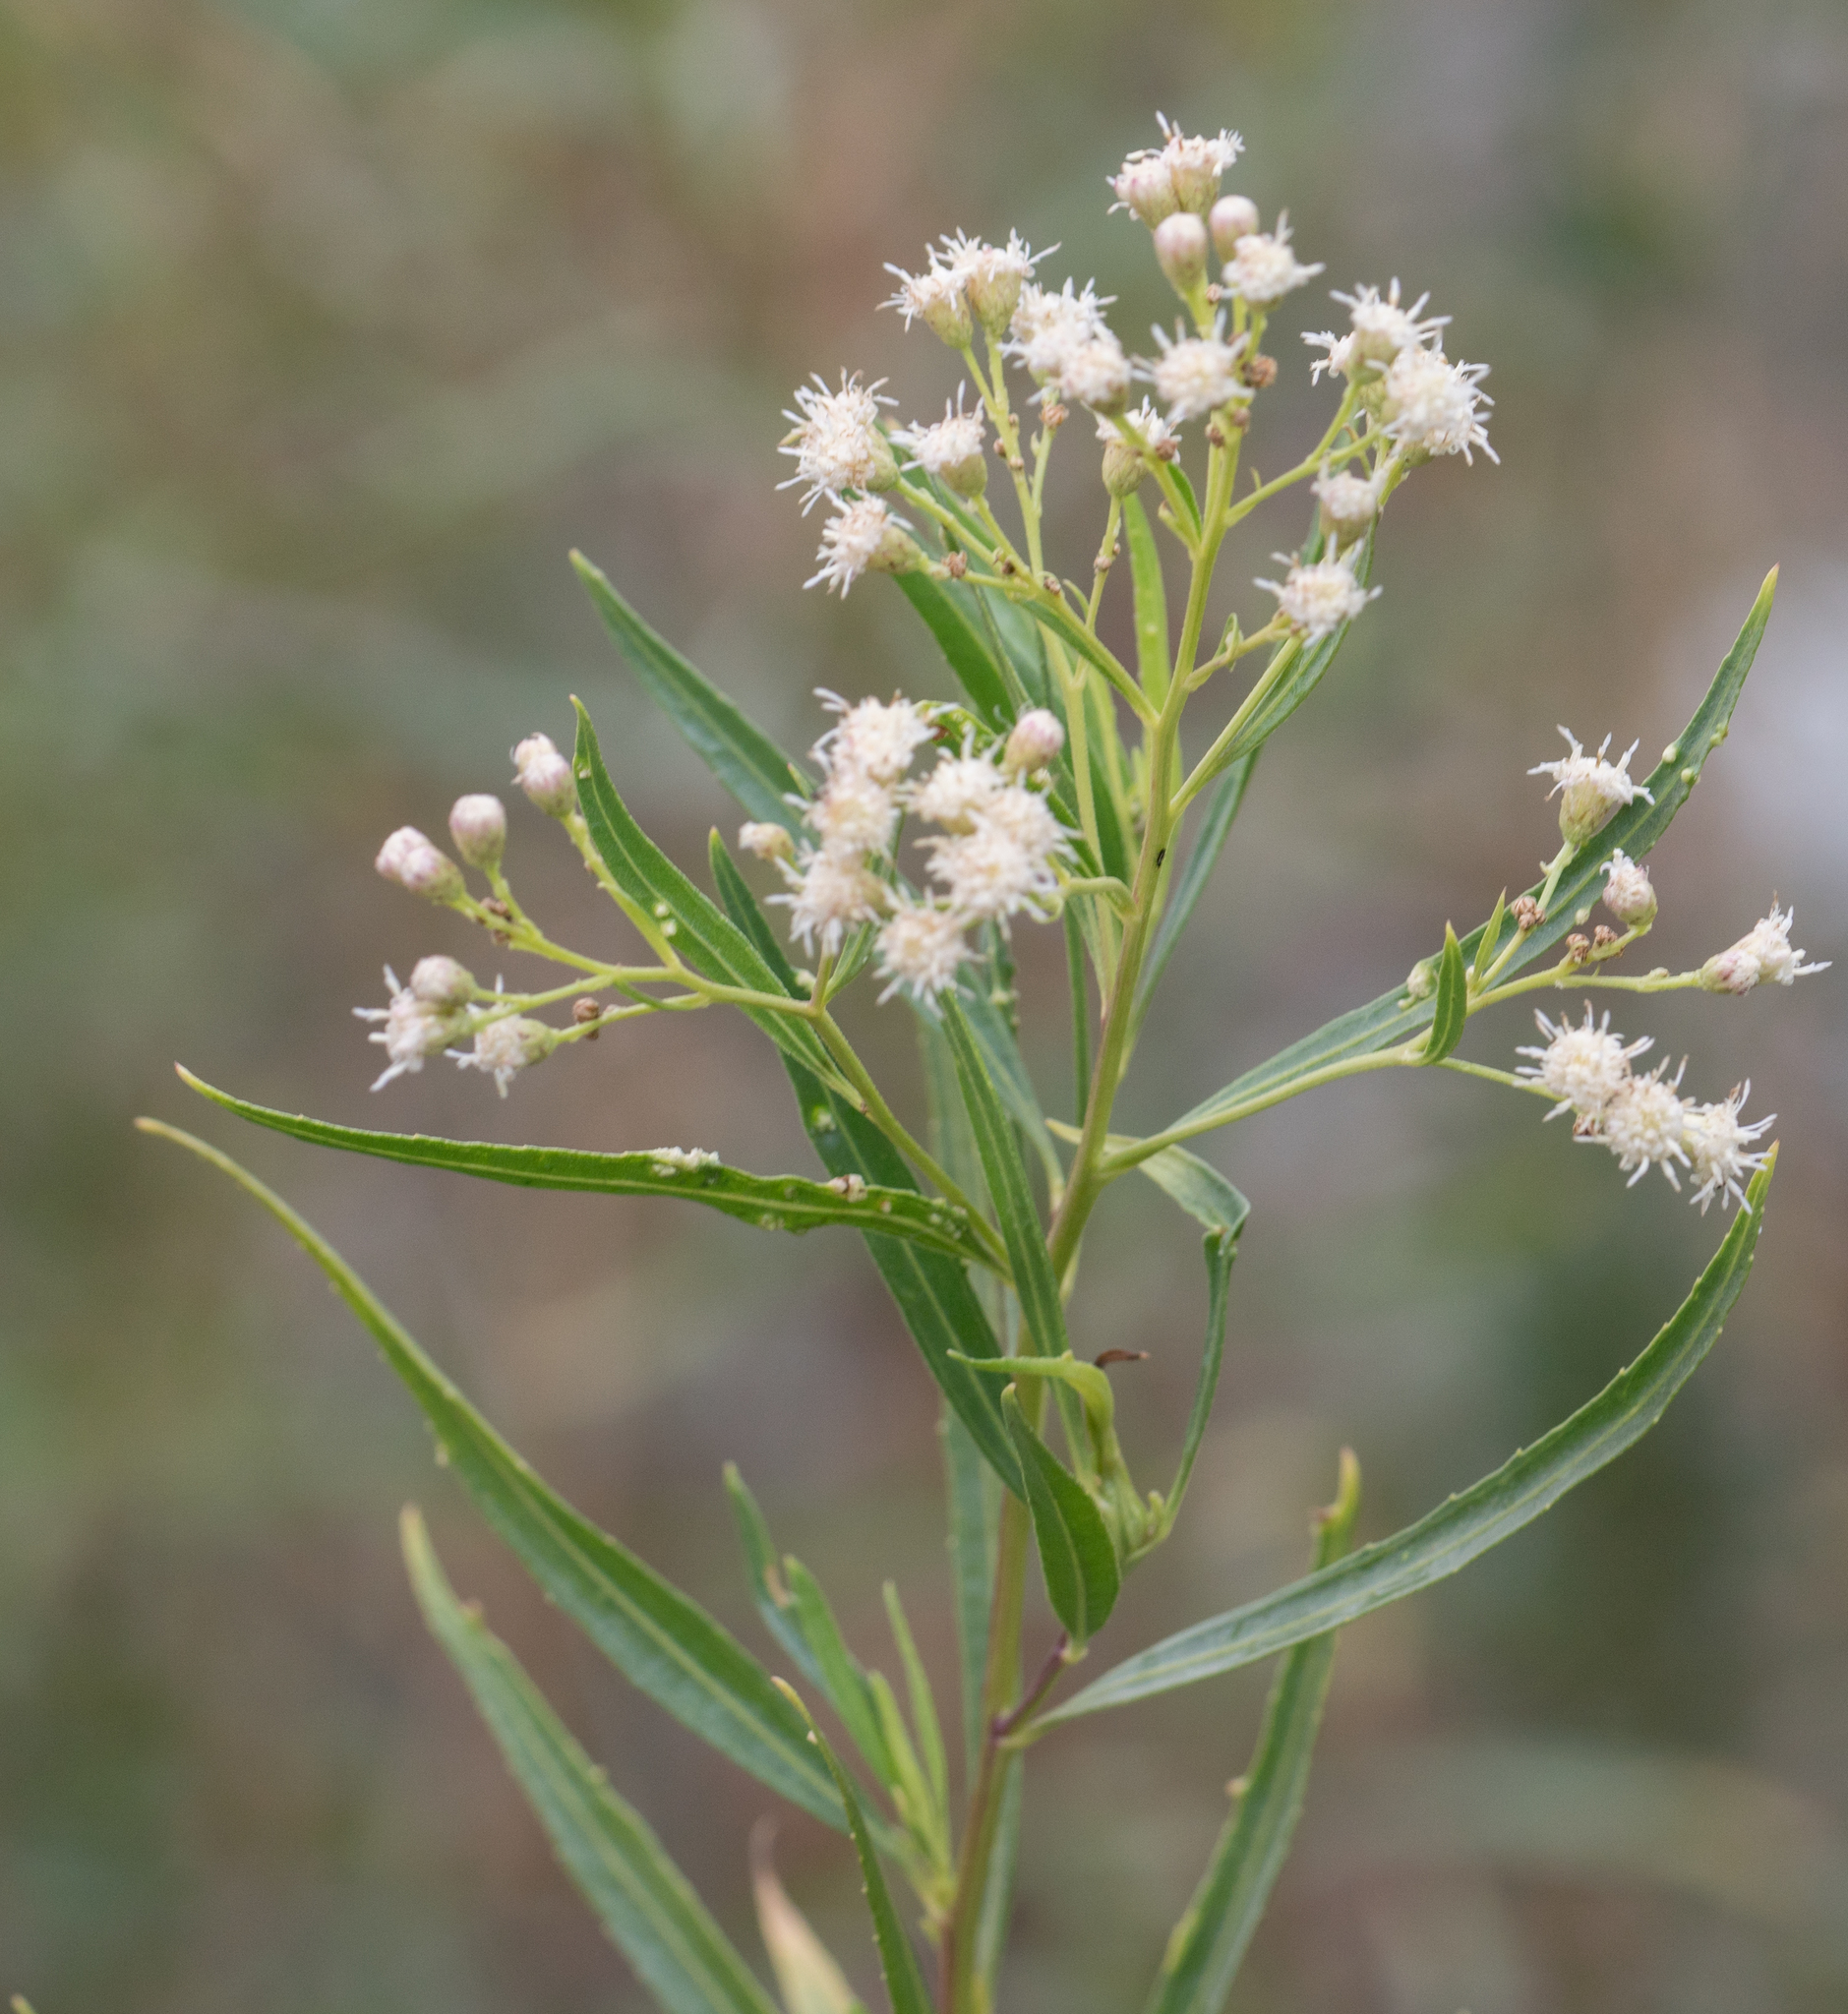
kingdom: Plantae
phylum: Tracheophyta
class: Magnoliopsida
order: Asterales
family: Asteraceae
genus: Baccharis
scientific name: Baccharis salicifolia
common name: Sticky baccharis
